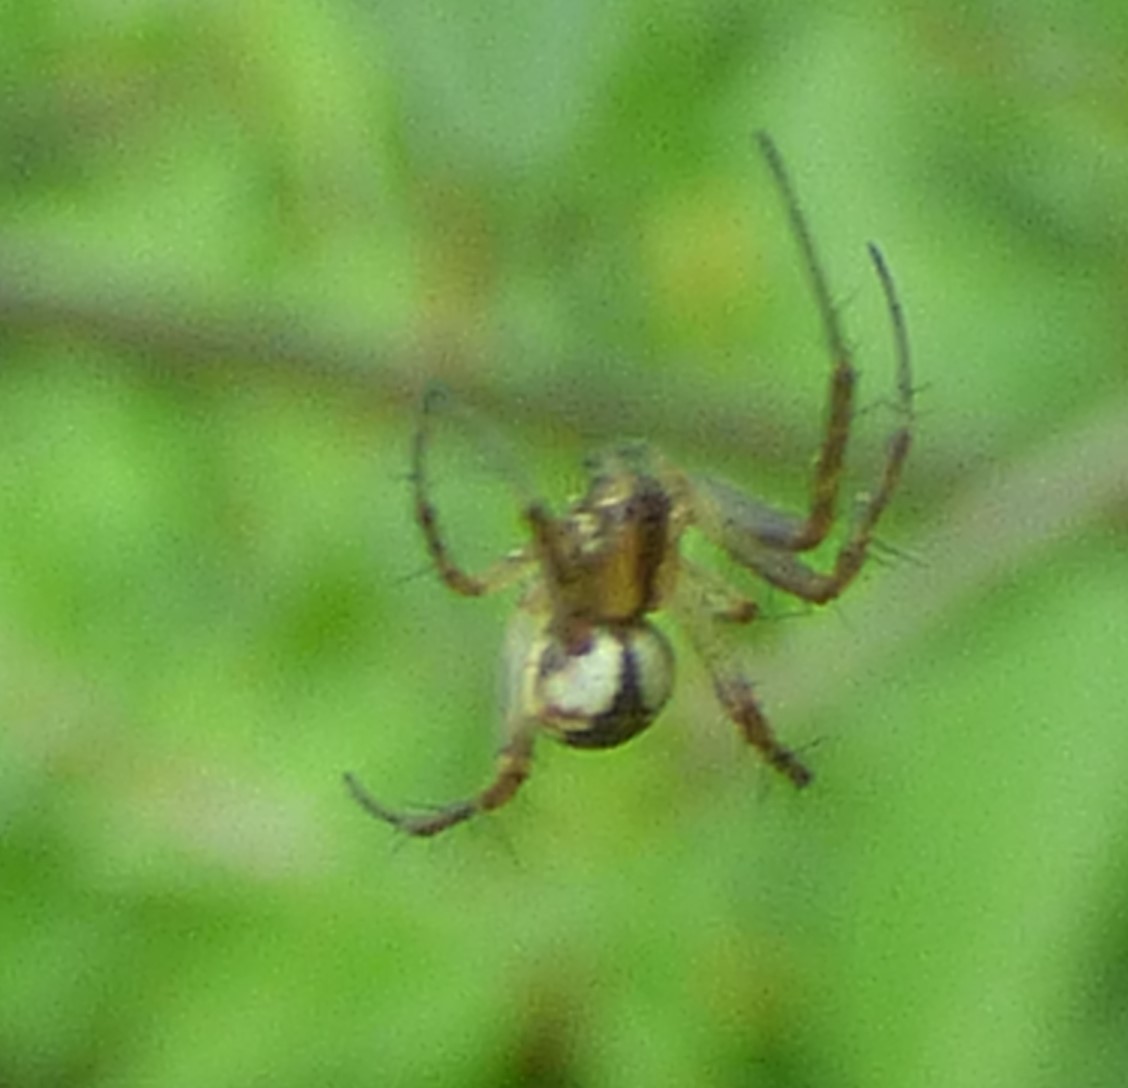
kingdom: Animalia
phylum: Arthropoda
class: Arachnida
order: Araneae
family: Araneidae
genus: Mangora
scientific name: Mangora placida
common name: Tuft-legged orbweaver
